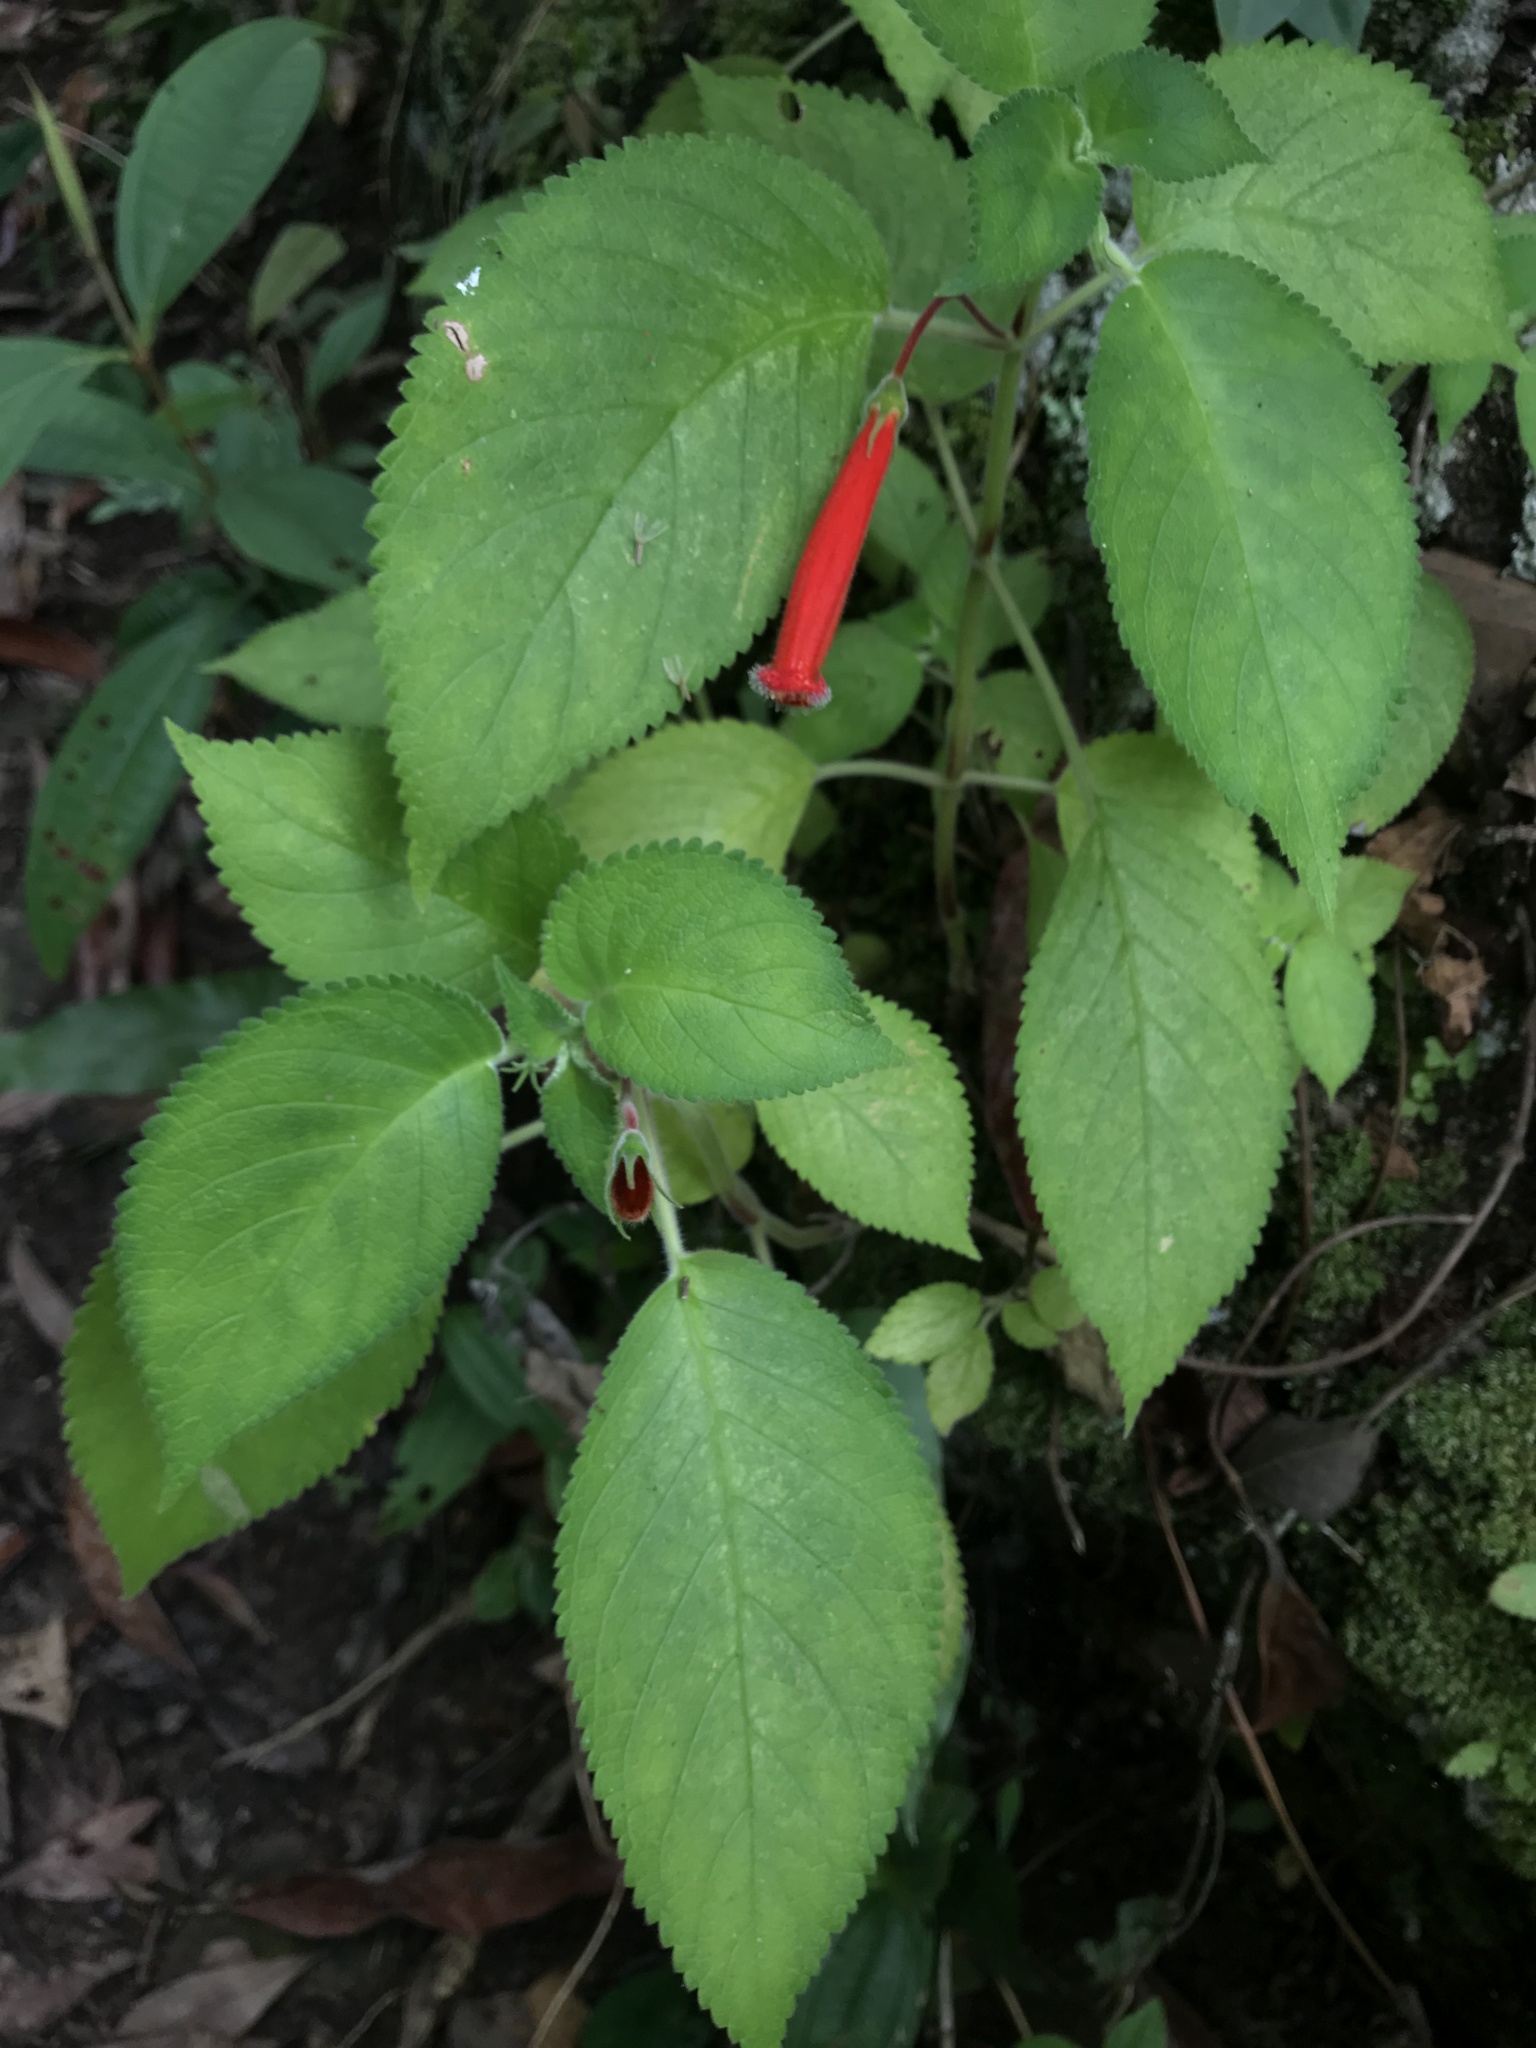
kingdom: Plantae
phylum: Tracheophyta
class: Magnoliopsida
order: Lamiales
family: Gesneriaceae
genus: Kohleria
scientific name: Kohleria hirsuta
